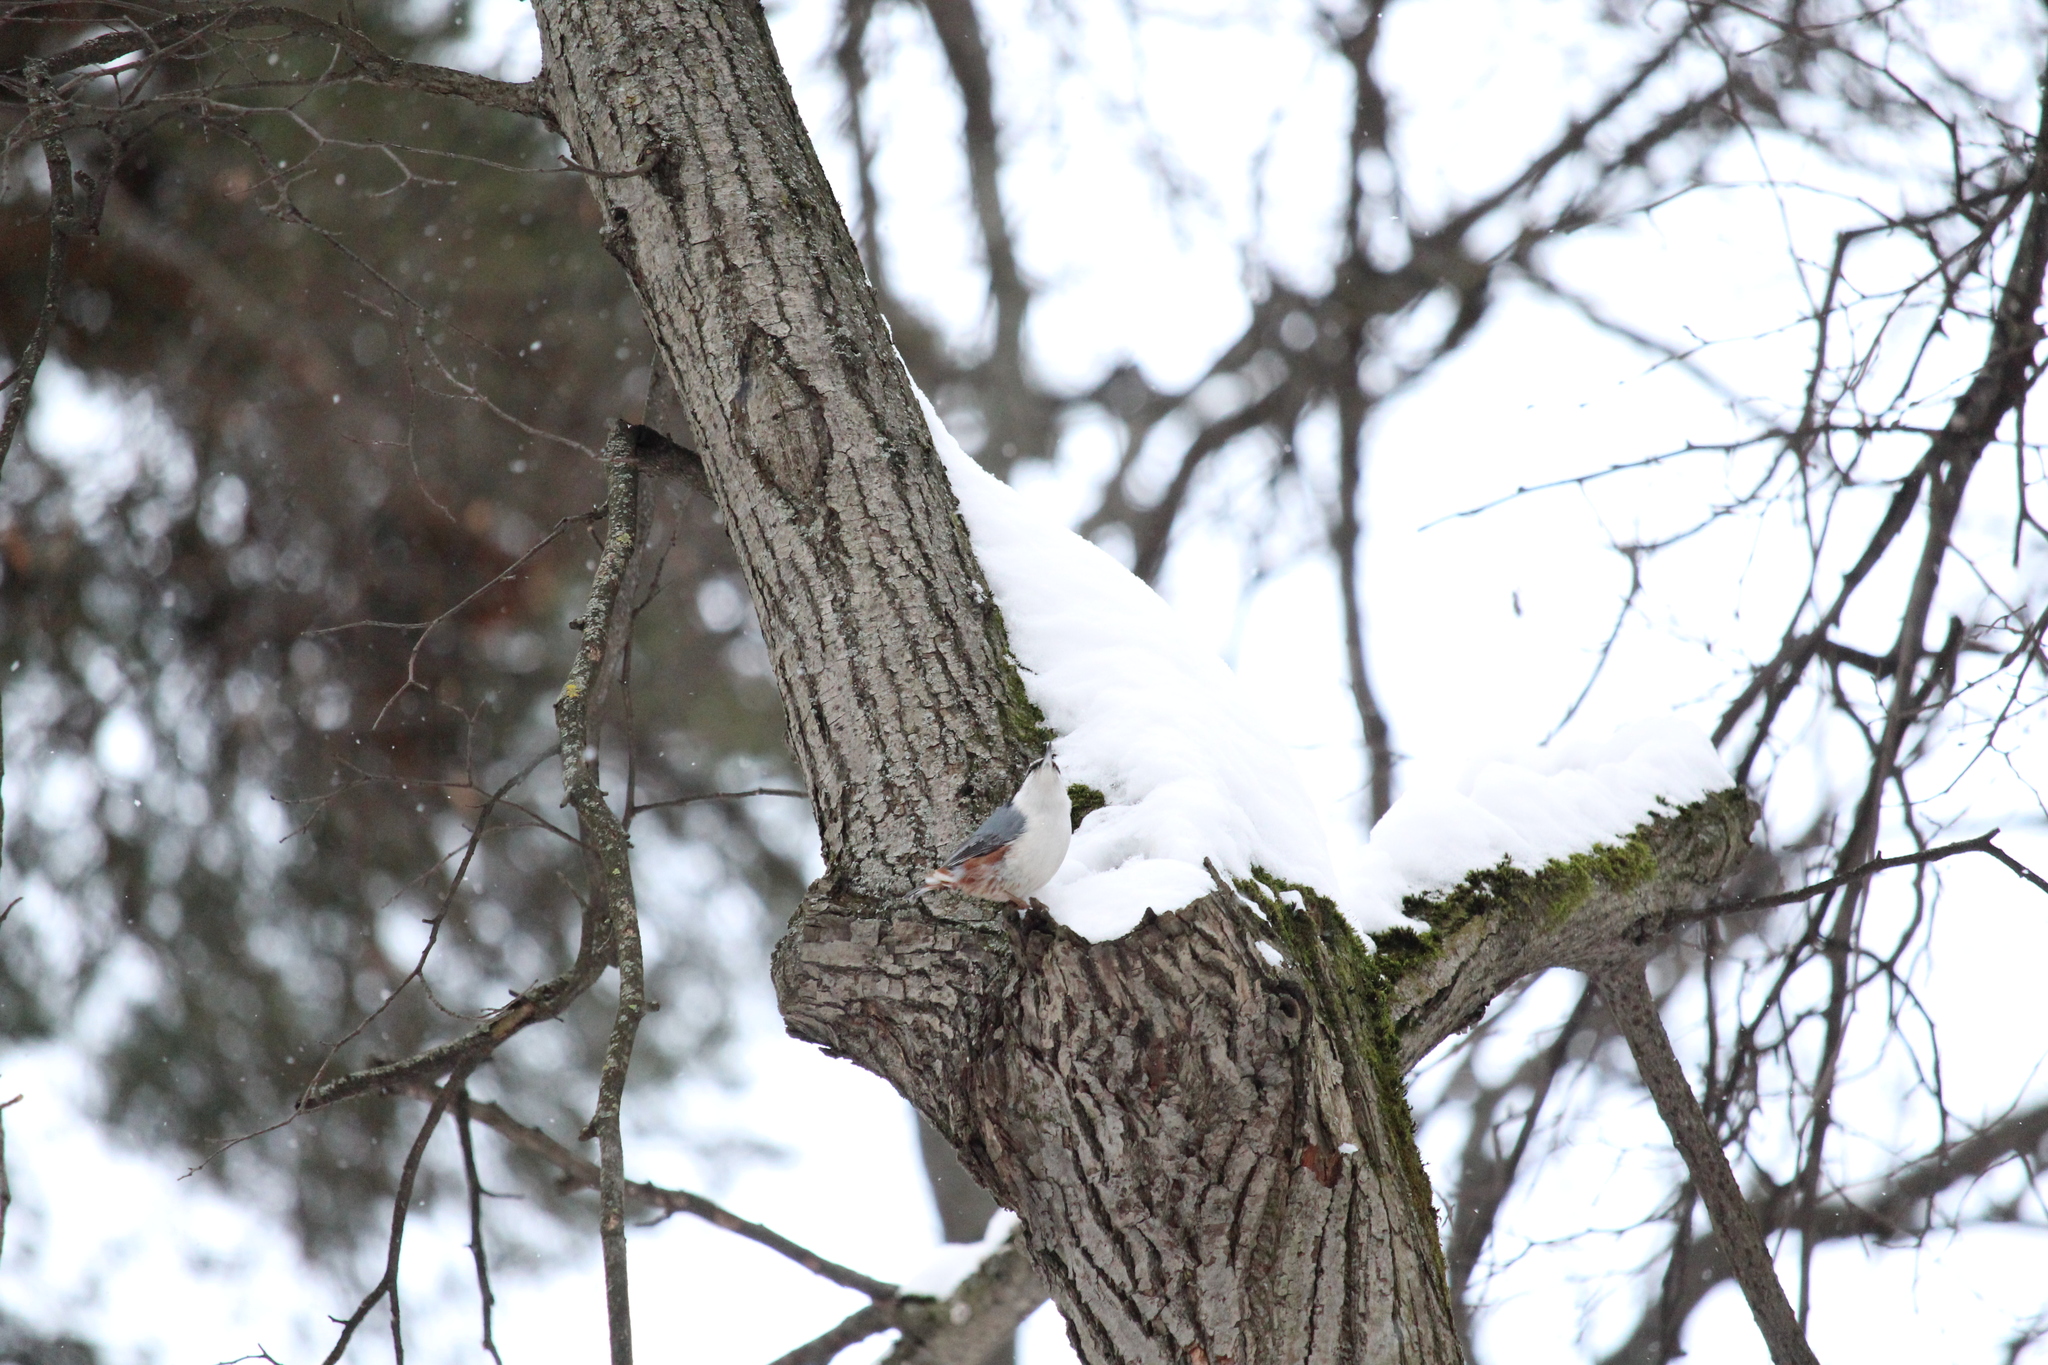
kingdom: Animalia
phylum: Chordata
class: Aves
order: Passeriformes
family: Sittidae
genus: Sitta
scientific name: Sitta europaea
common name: Eurasian nuthatch
